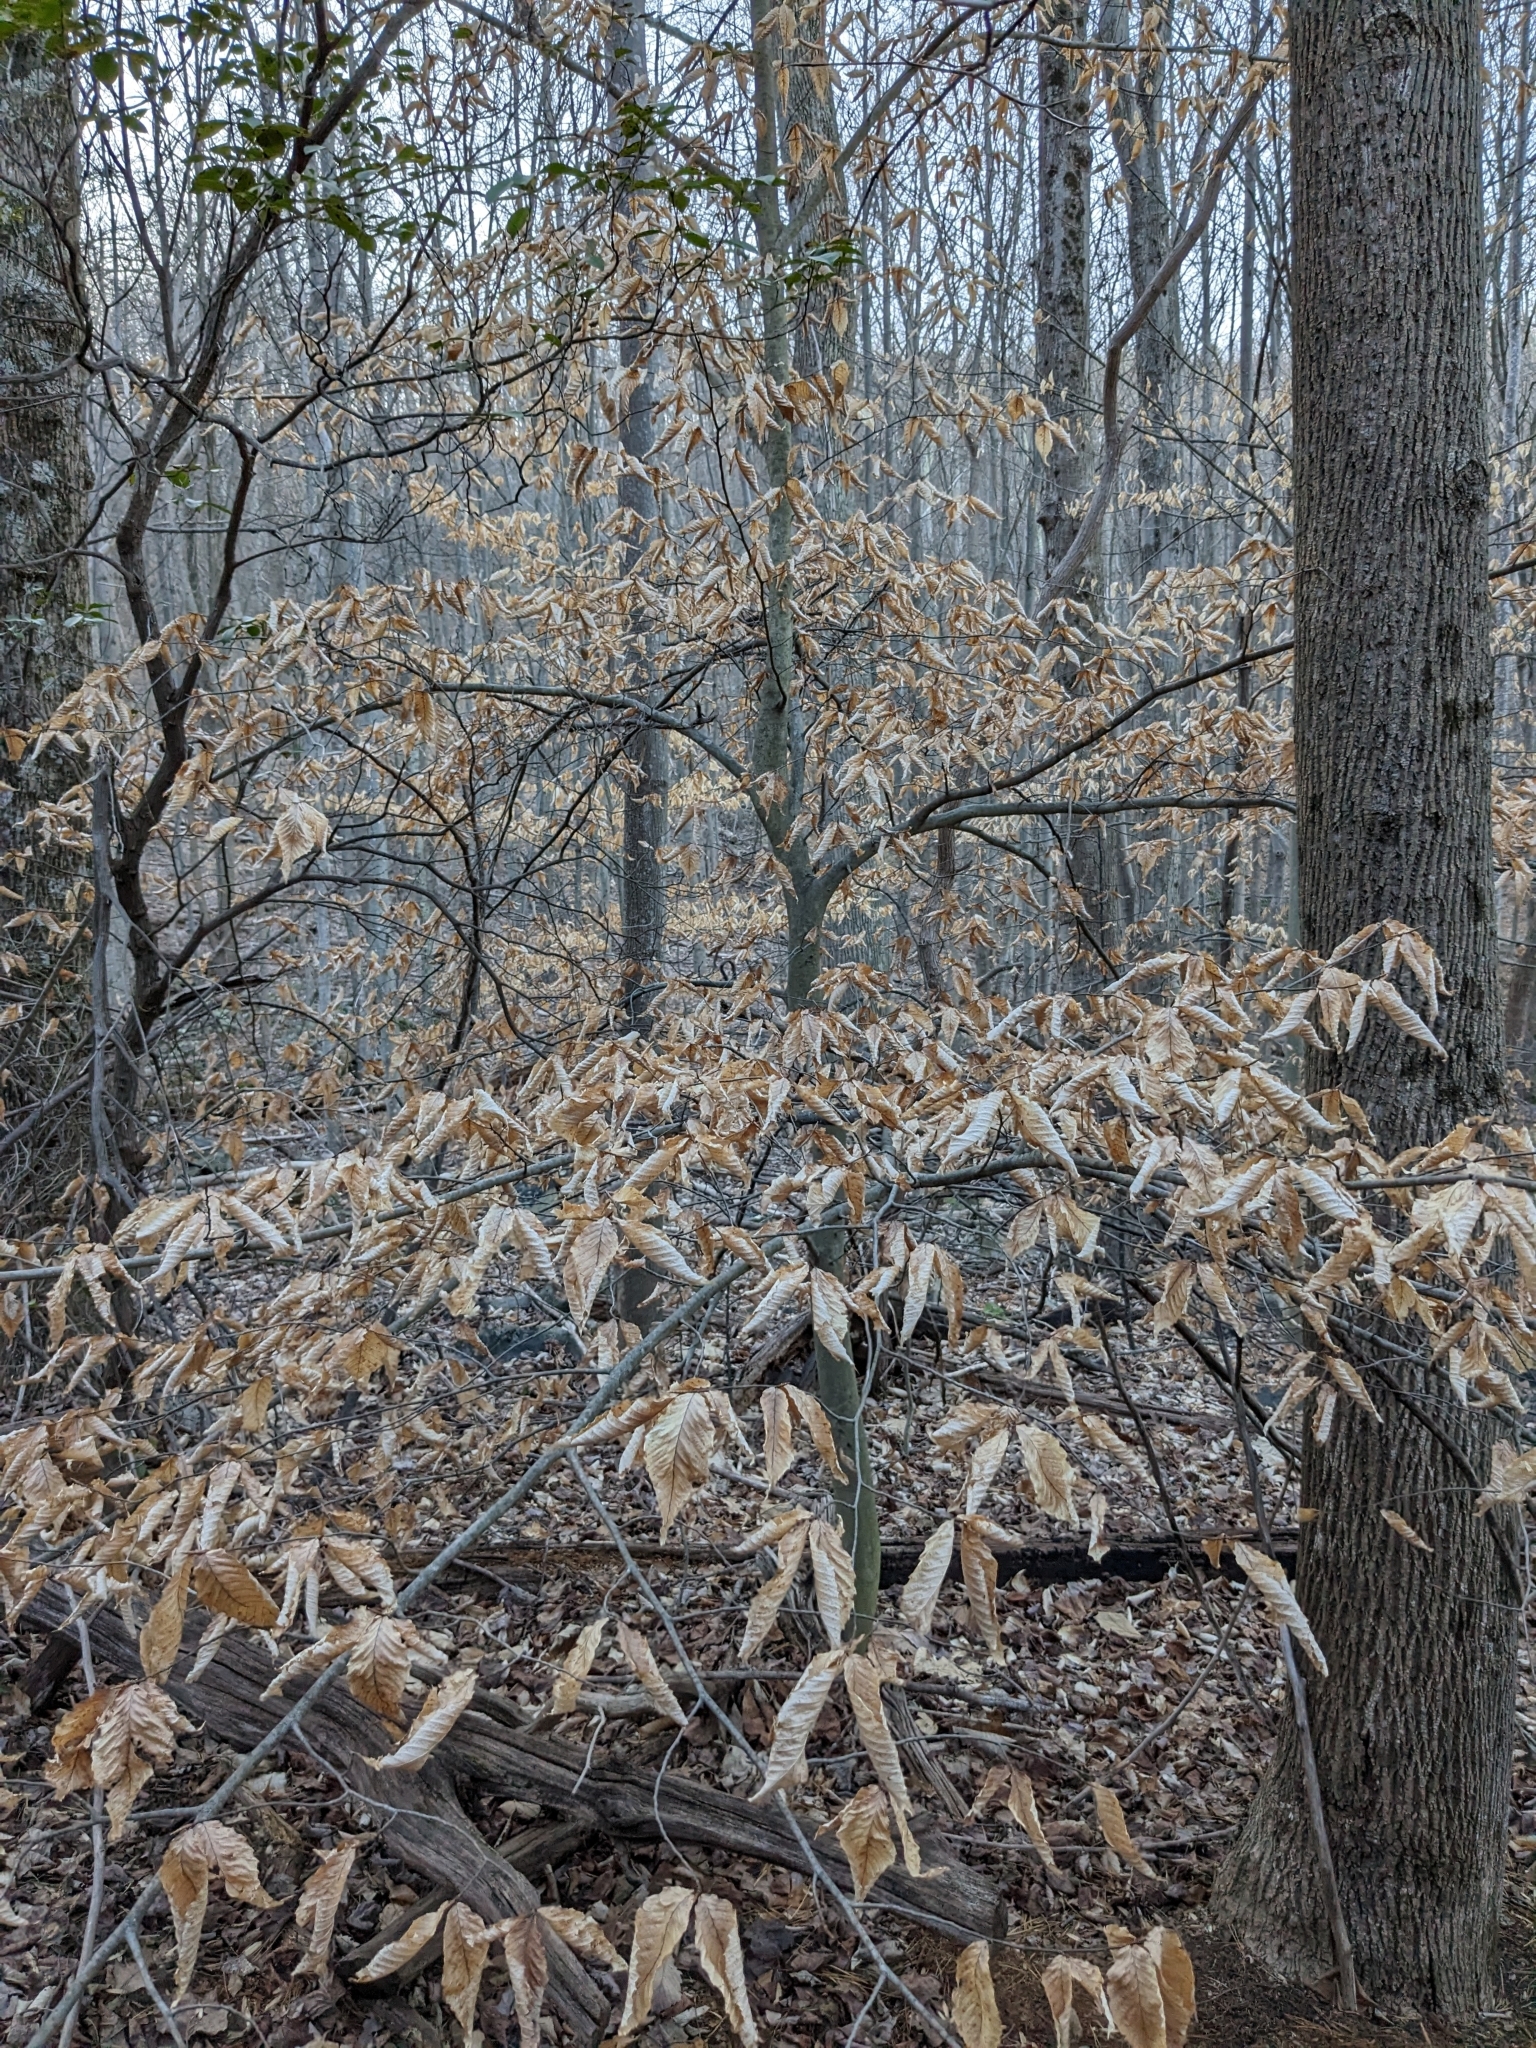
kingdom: Plantae
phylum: Tracheophyta
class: Magnoliopsida
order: Fagales
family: Fagaceae
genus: Fagus
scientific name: Fagus grandifolia
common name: American beech
